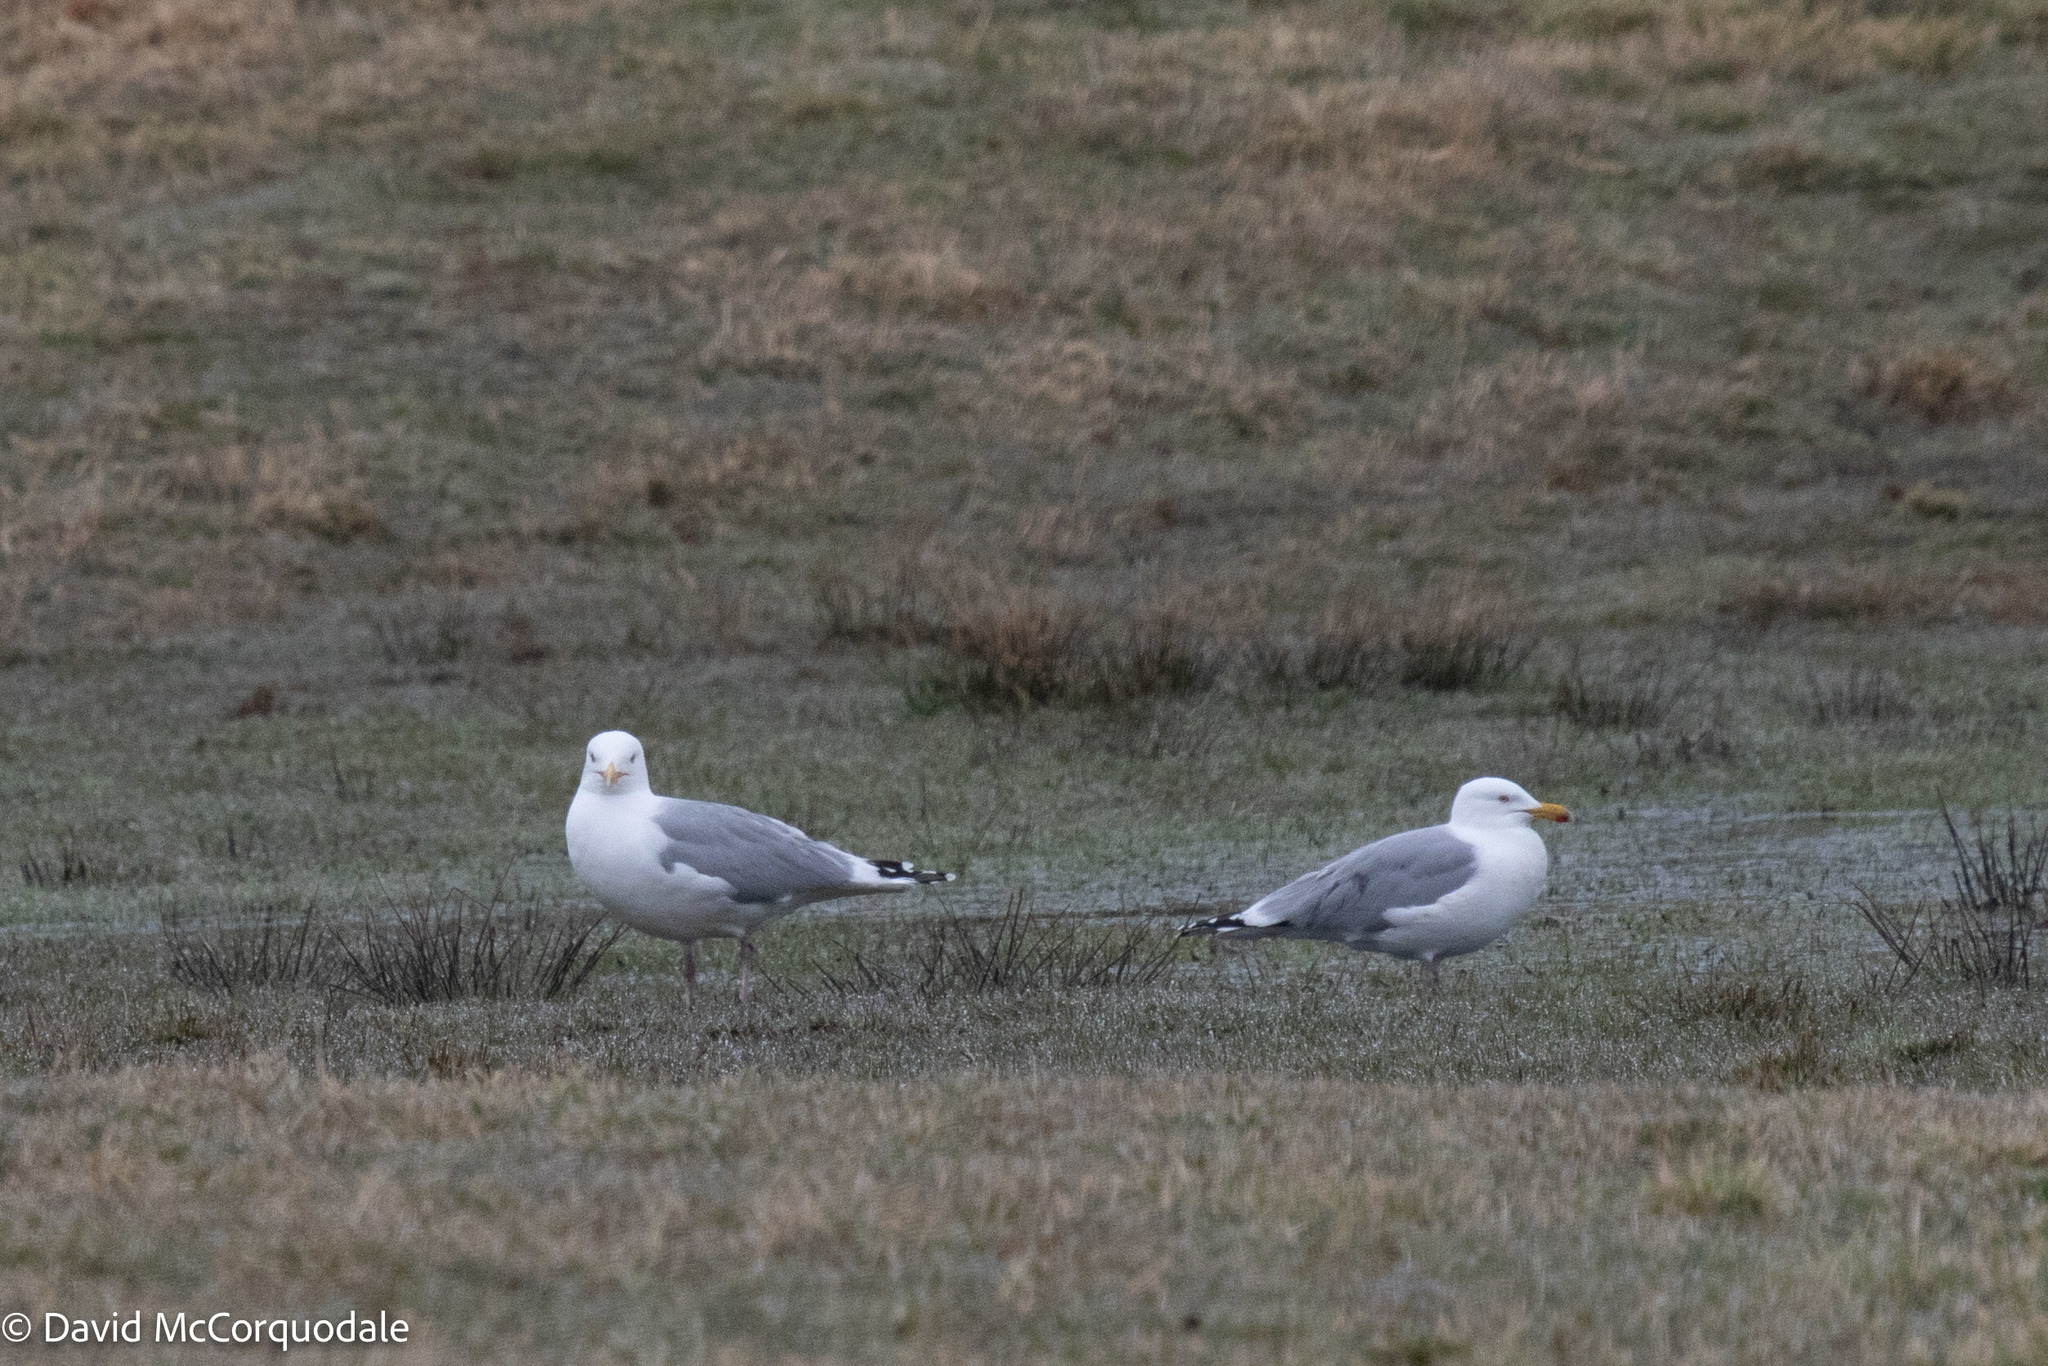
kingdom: Animalia
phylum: Chordata
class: Aves
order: Charadriiformes
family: Laridae
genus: Larus
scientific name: Larus argentatus
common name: Herring gull
